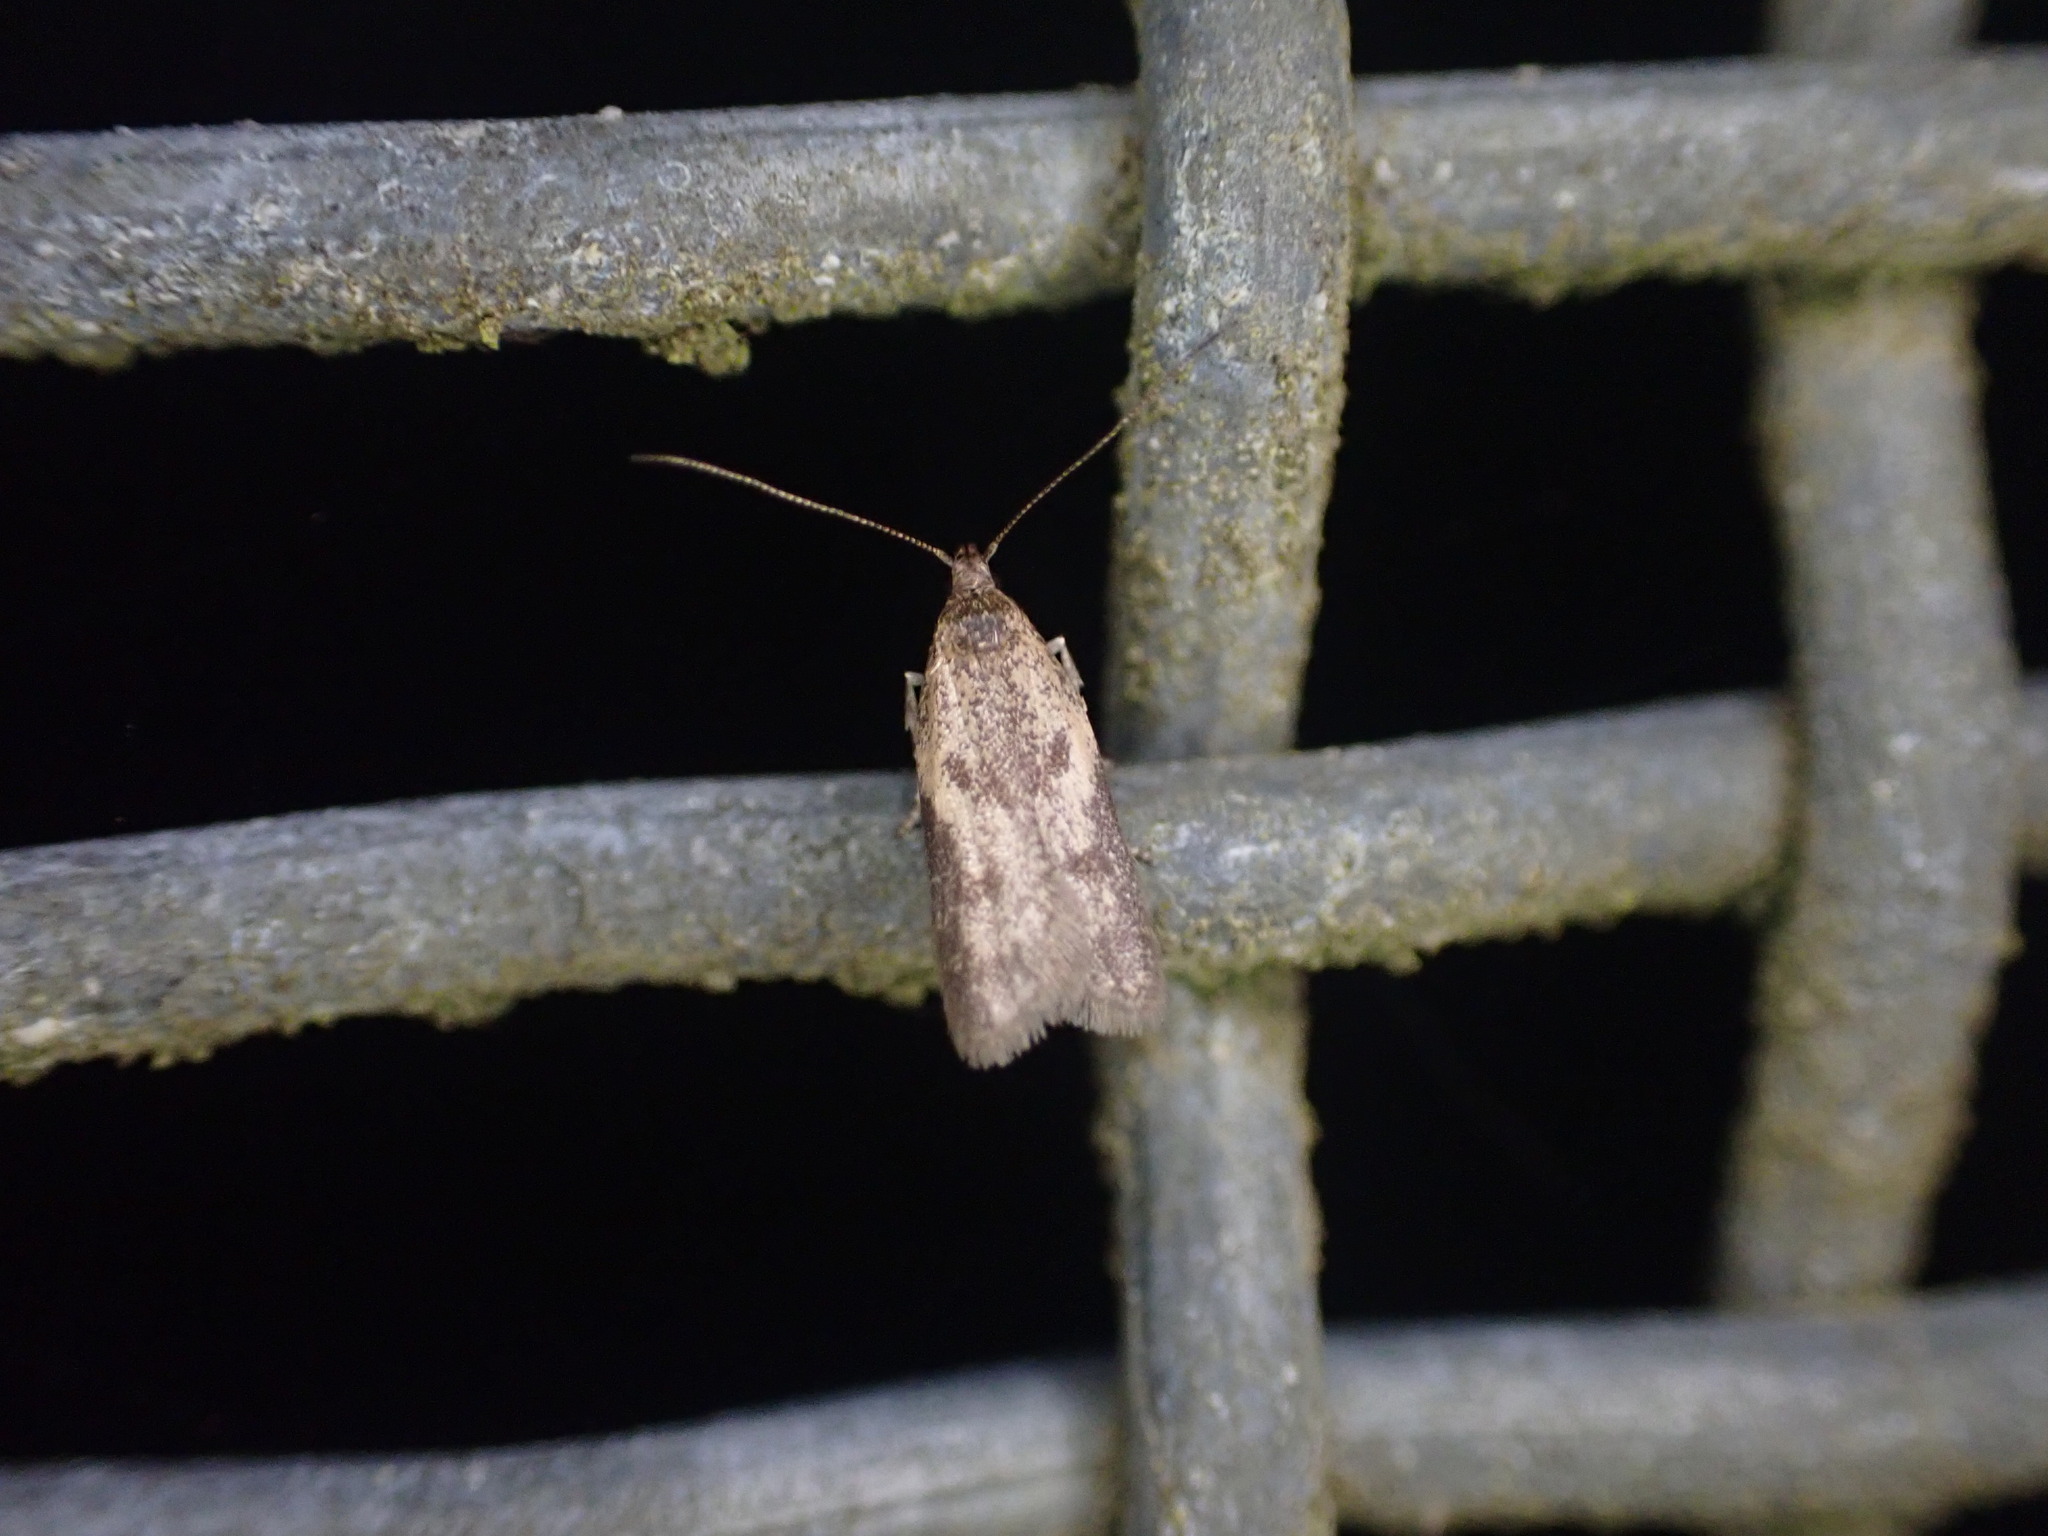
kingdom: Animalia
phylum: Arthropoda
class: Insecta
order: Lepidoptera
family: Oecophoridae
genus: Gymnobathra
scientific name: Gymnobathra tholodella
